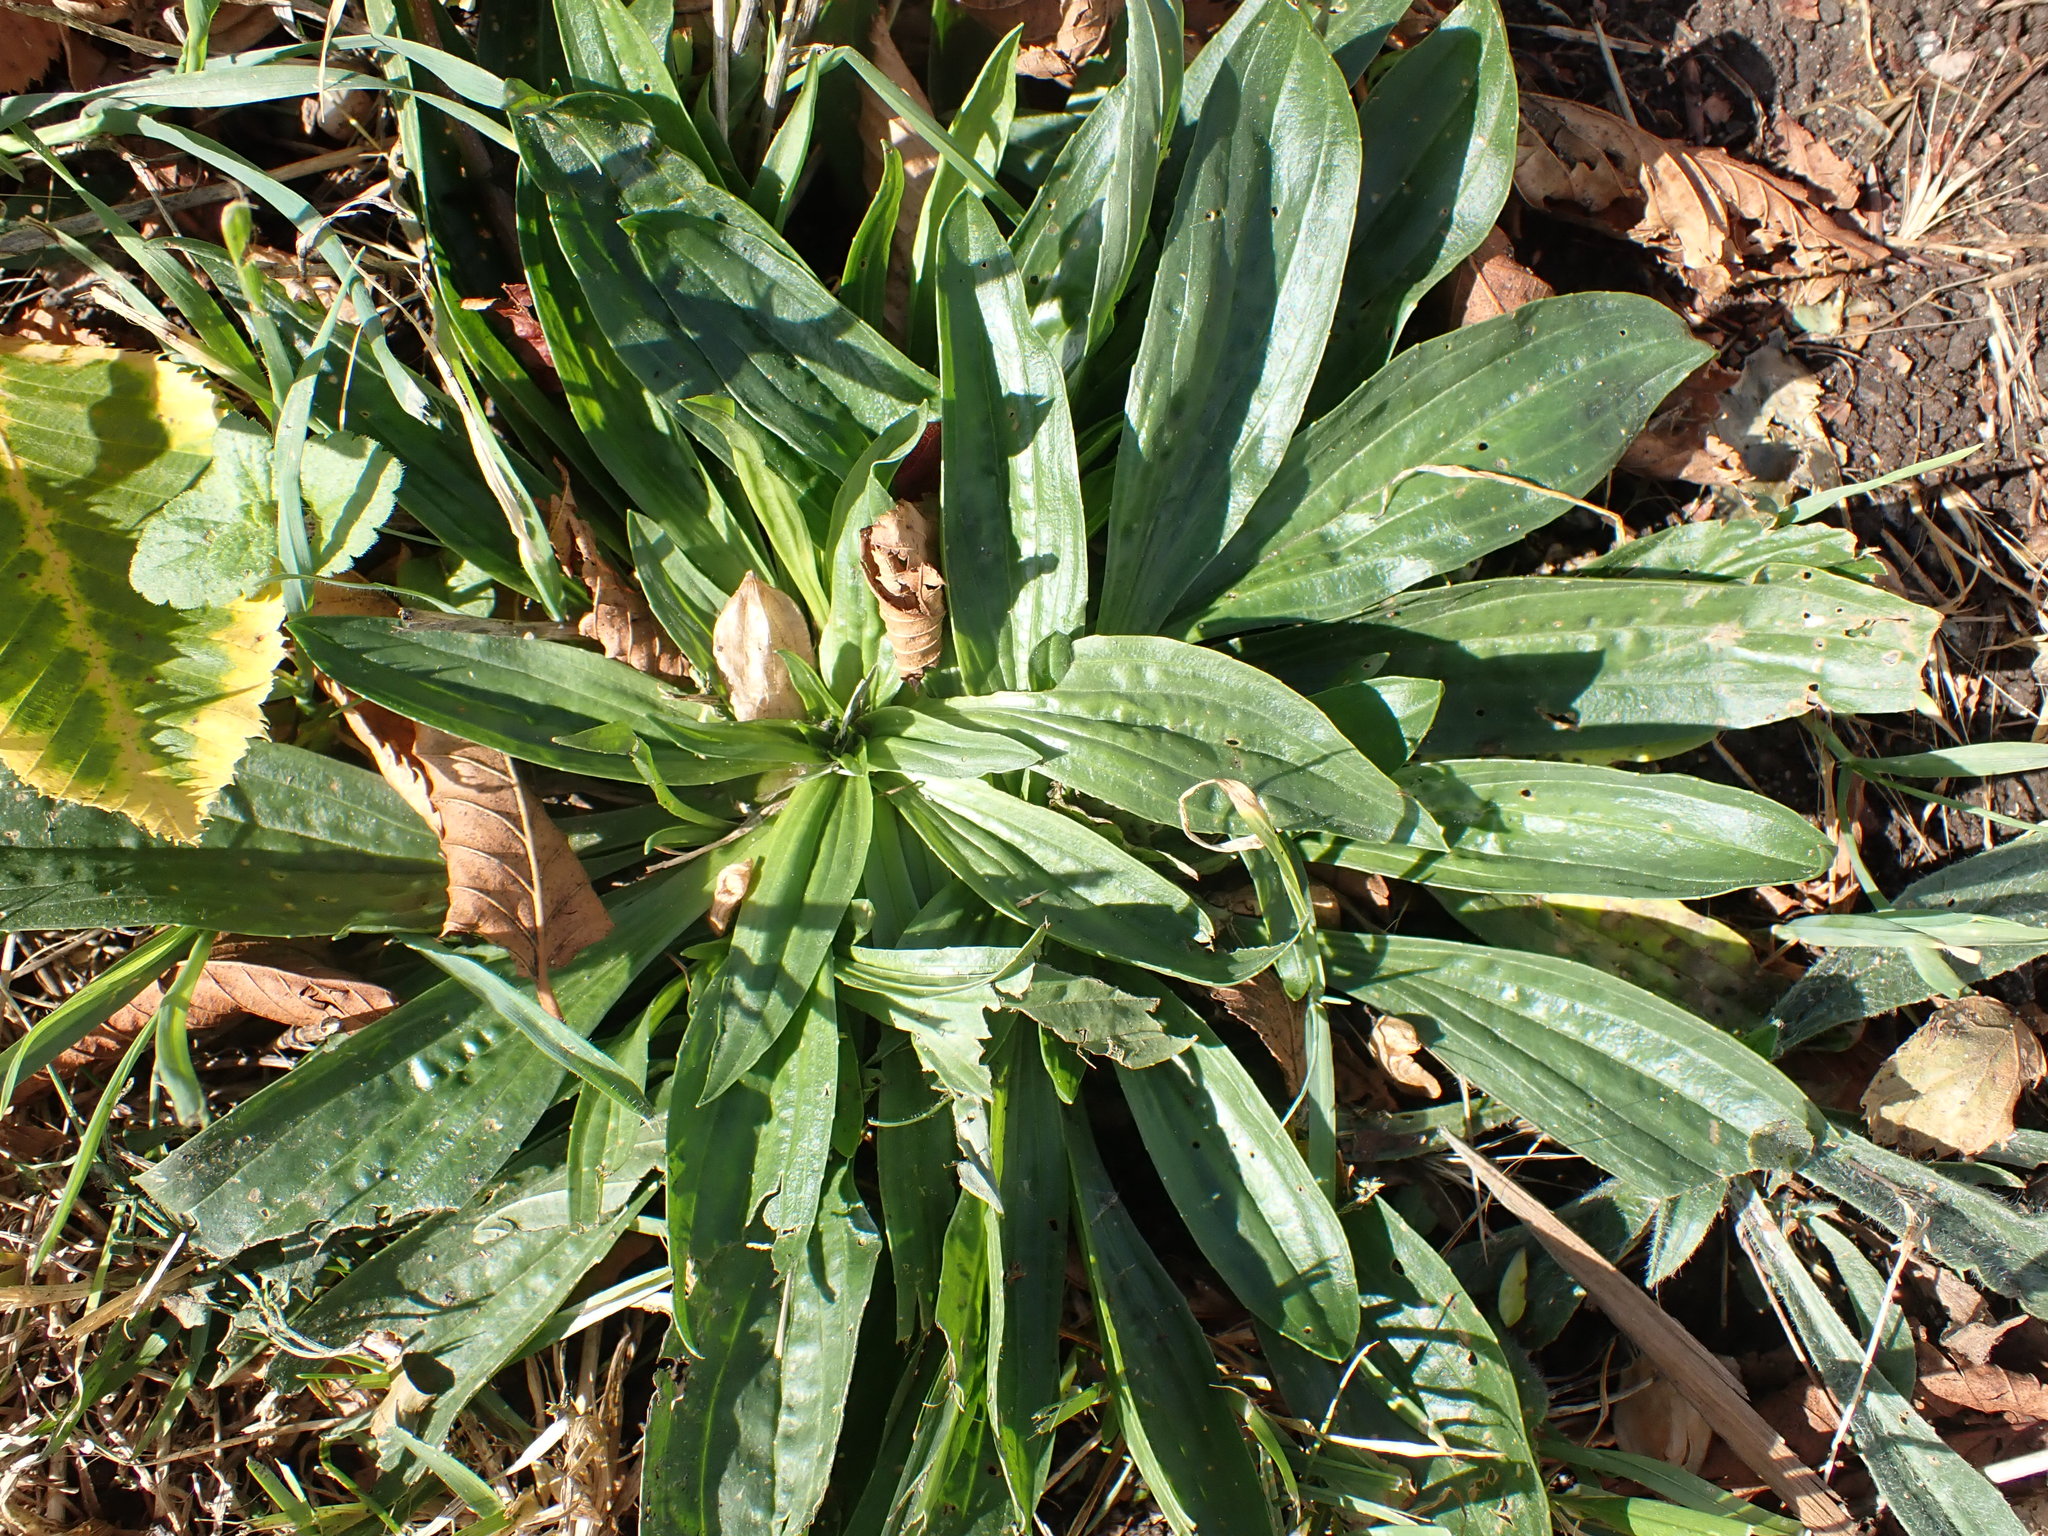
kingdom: Plantae
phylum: Tracheophyta
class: Magnoliopsida
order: Lamiales
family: Plantaginaceae
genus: Plantago
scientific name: Plantago lanceolata
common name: Ribwort plantain
